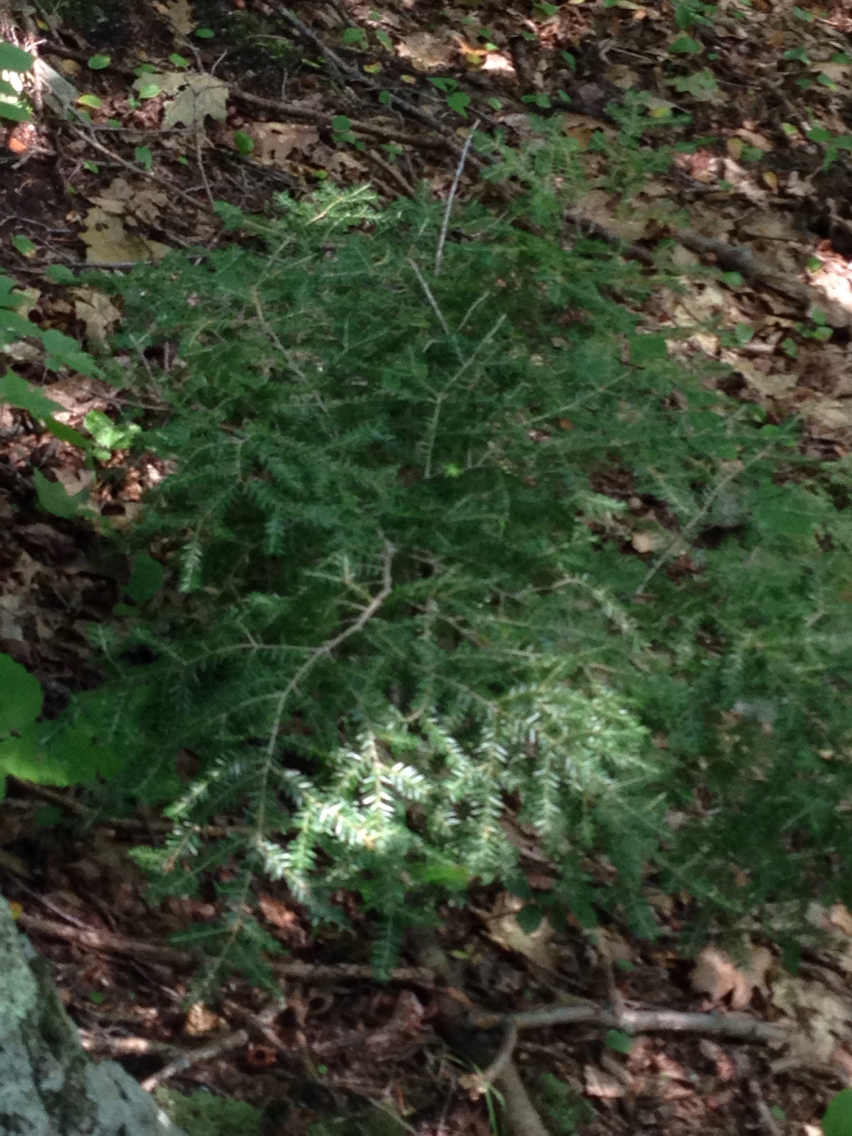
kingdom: Plantae
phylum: Tracheophyta
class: Pinopsida
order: Pinales
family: Pinaceae
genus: Tsuga
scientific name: Tsuga canadensis
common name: Eastern hemlock
